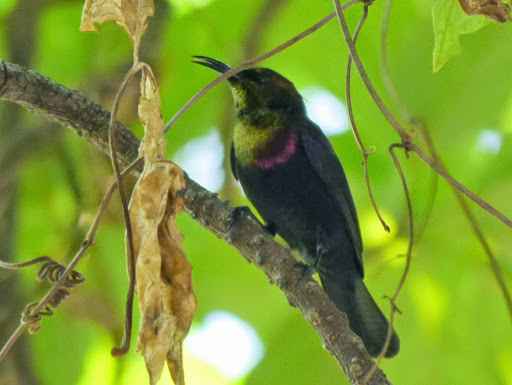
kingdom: Animalia
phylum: Chordata
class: Aves
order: Passeriformes
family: Nectariniidae
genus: Cinnyris
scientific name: Cinnyris cupreus
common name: Copper sunbird
